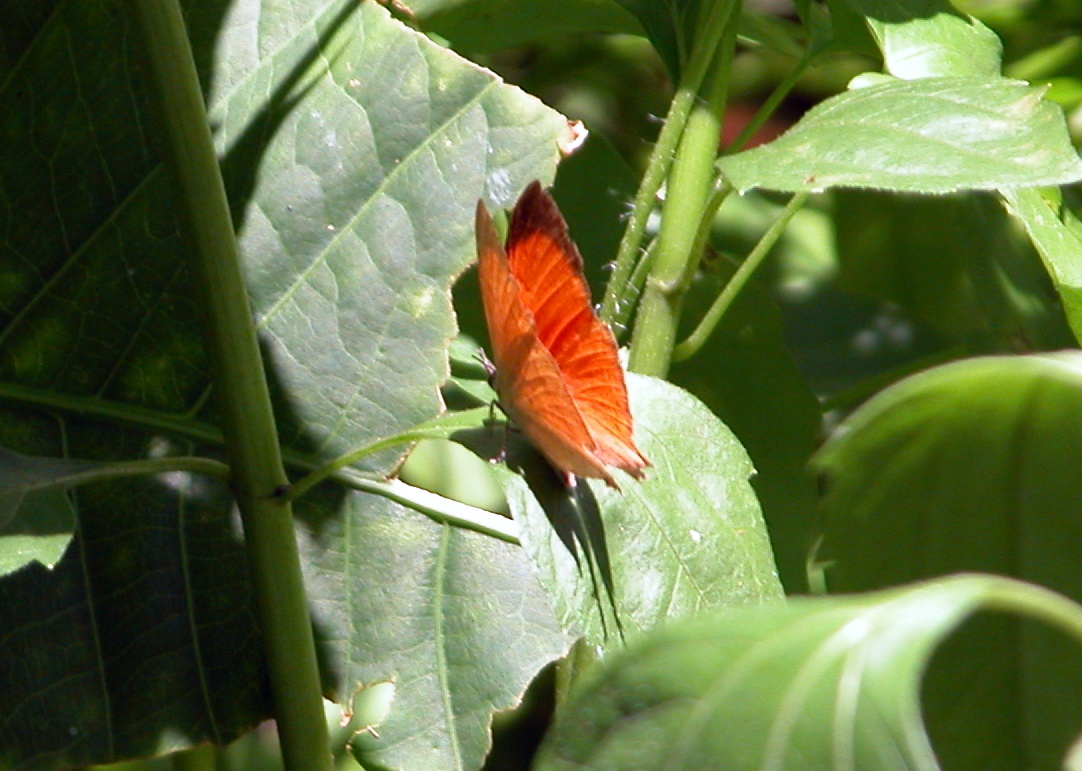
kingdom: Animalia
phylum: Arthropoda
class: Insecta
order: Lepidoptera
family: Lycaenidae
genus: Loxura
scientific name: Loxura atymnus
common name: Common yamfly
